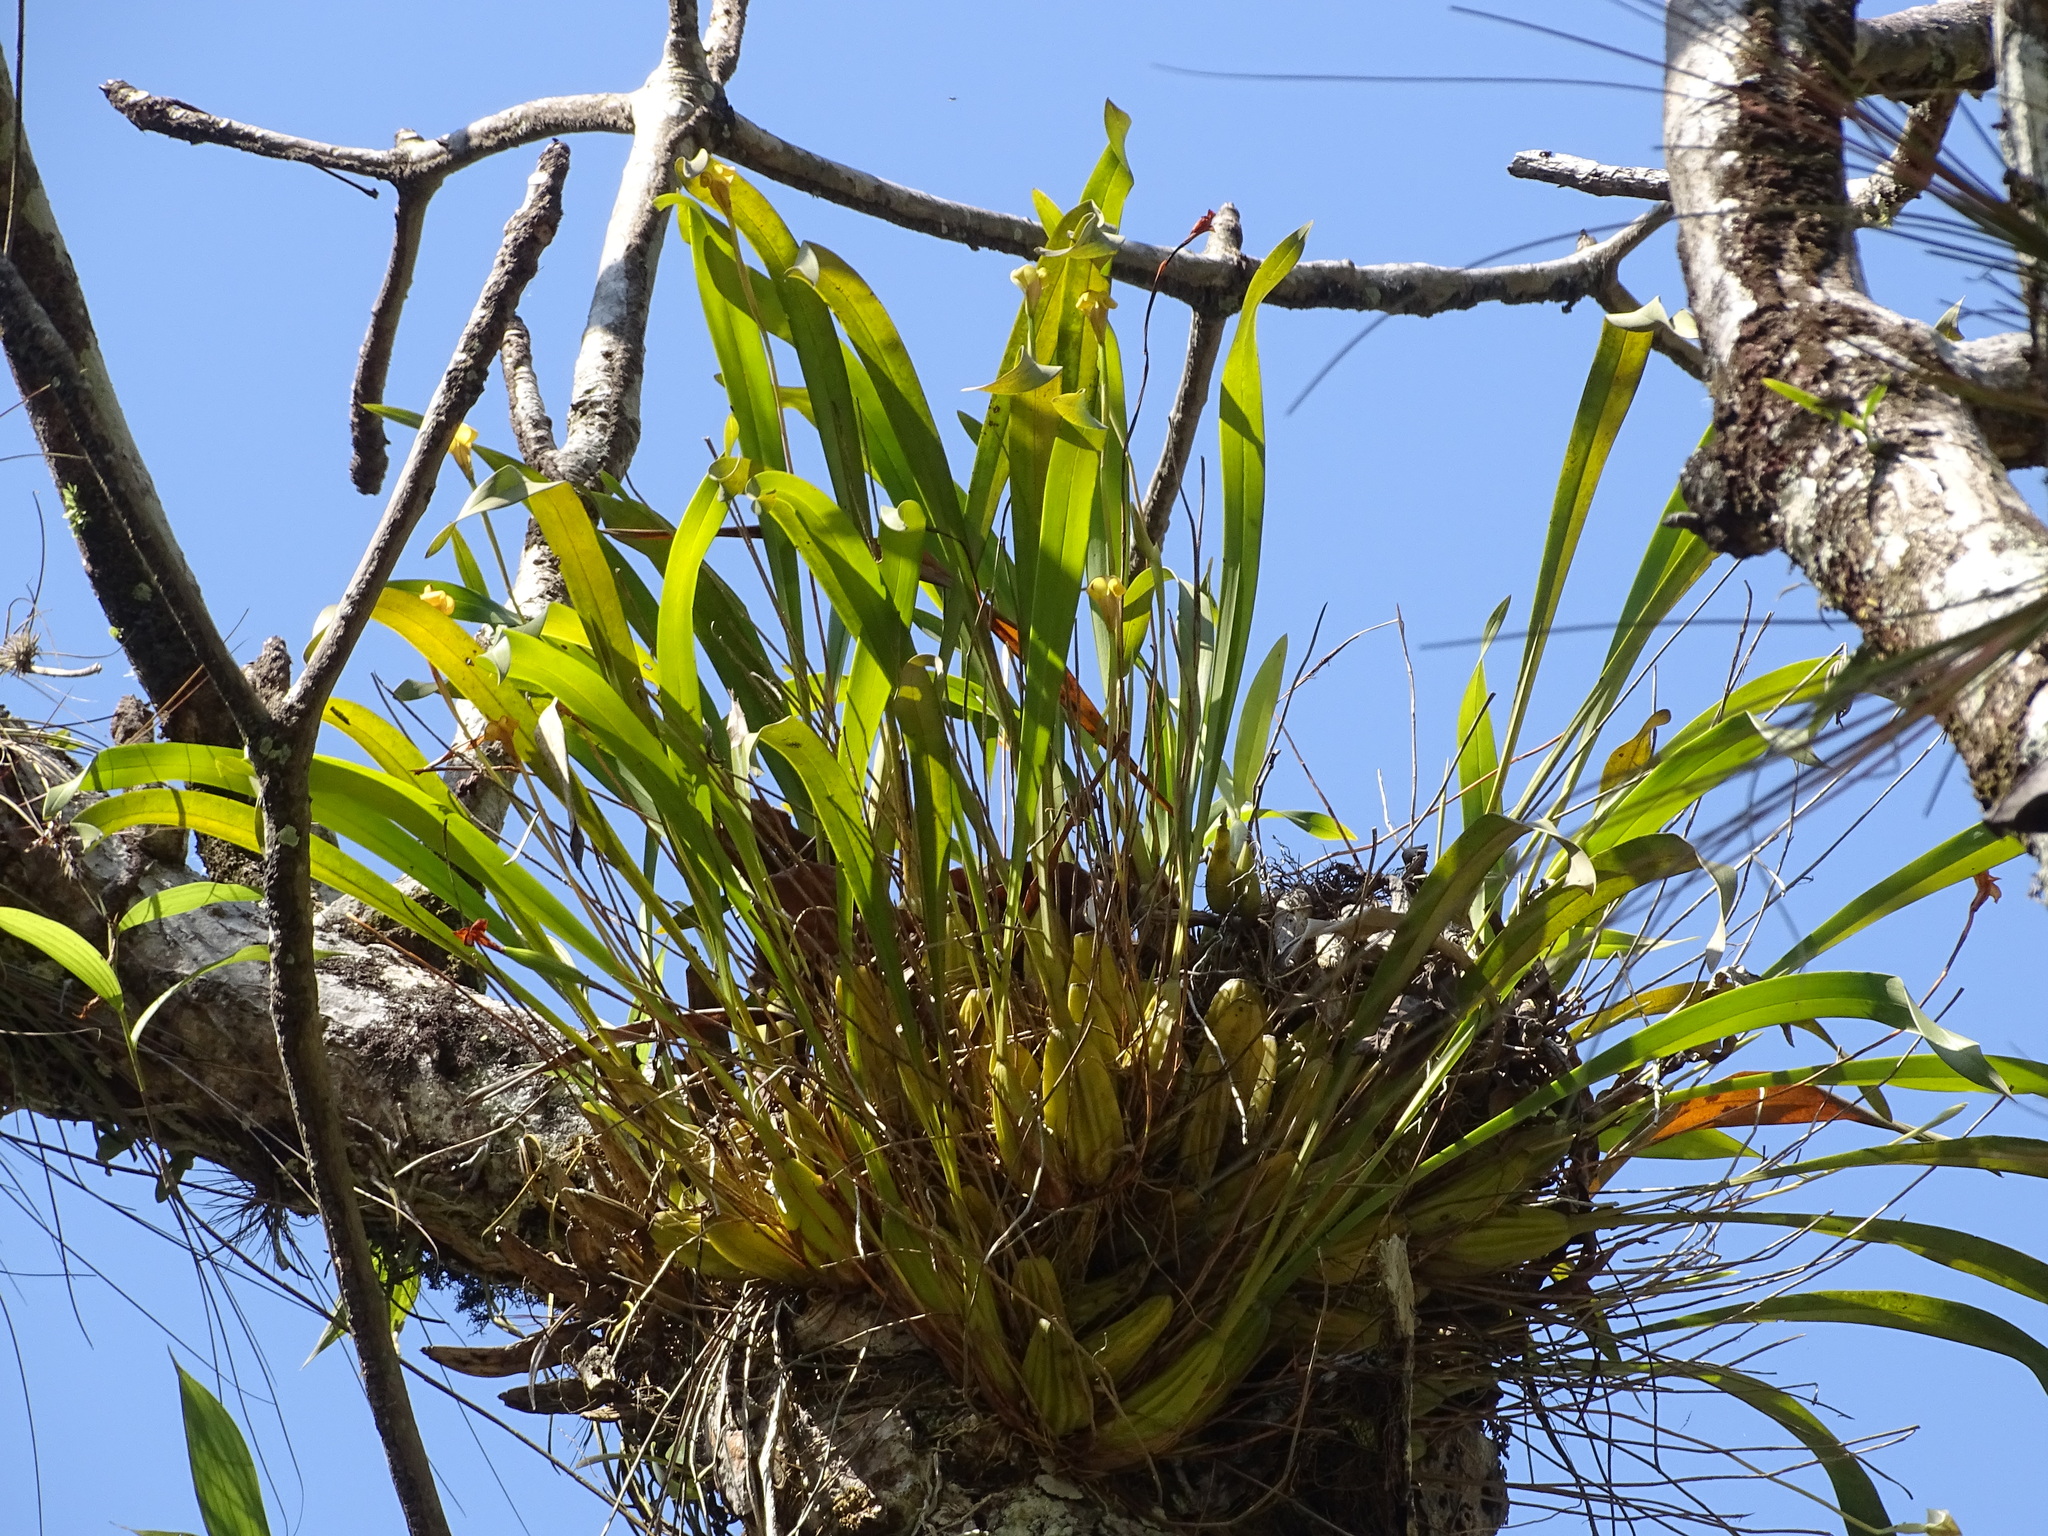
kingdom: Plantae
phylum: Tracheophyta
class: Liliopsida
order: Asparagales
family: Orchidaceae
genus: Maxillaria
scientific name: Maxillaria egertoniana
